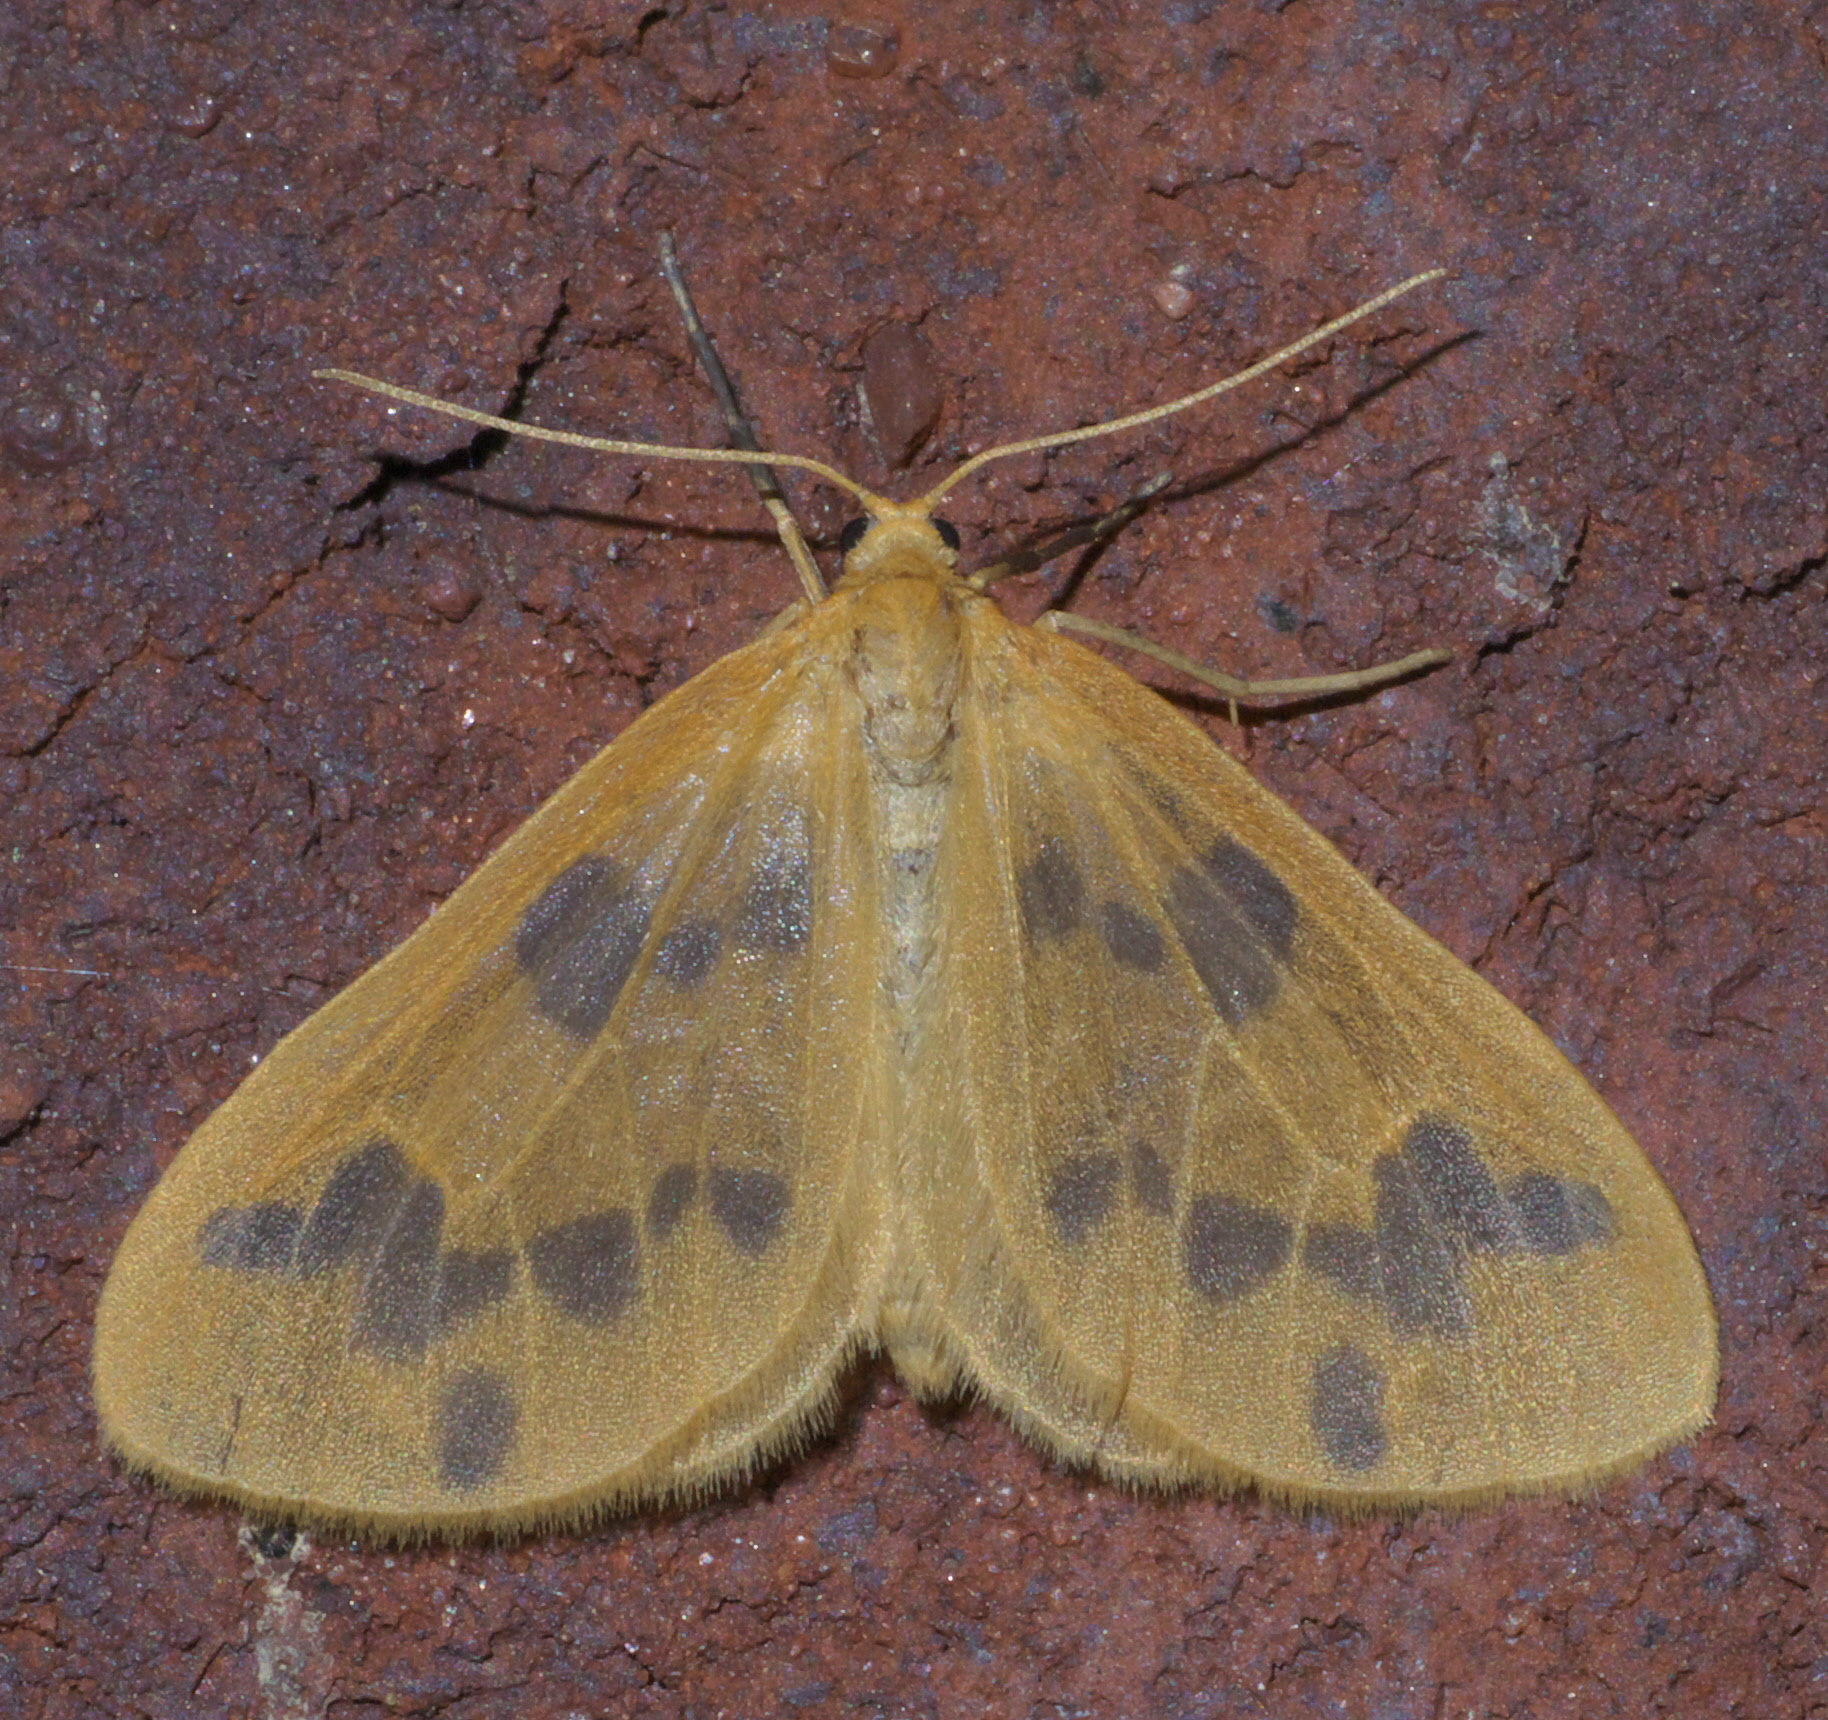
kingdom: Animalia
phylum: Arthropoda
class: Insecta
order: Lepidoptera
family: Geometridae
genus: Eubaphe
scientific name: Eubaphe mendica
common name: Beggar
